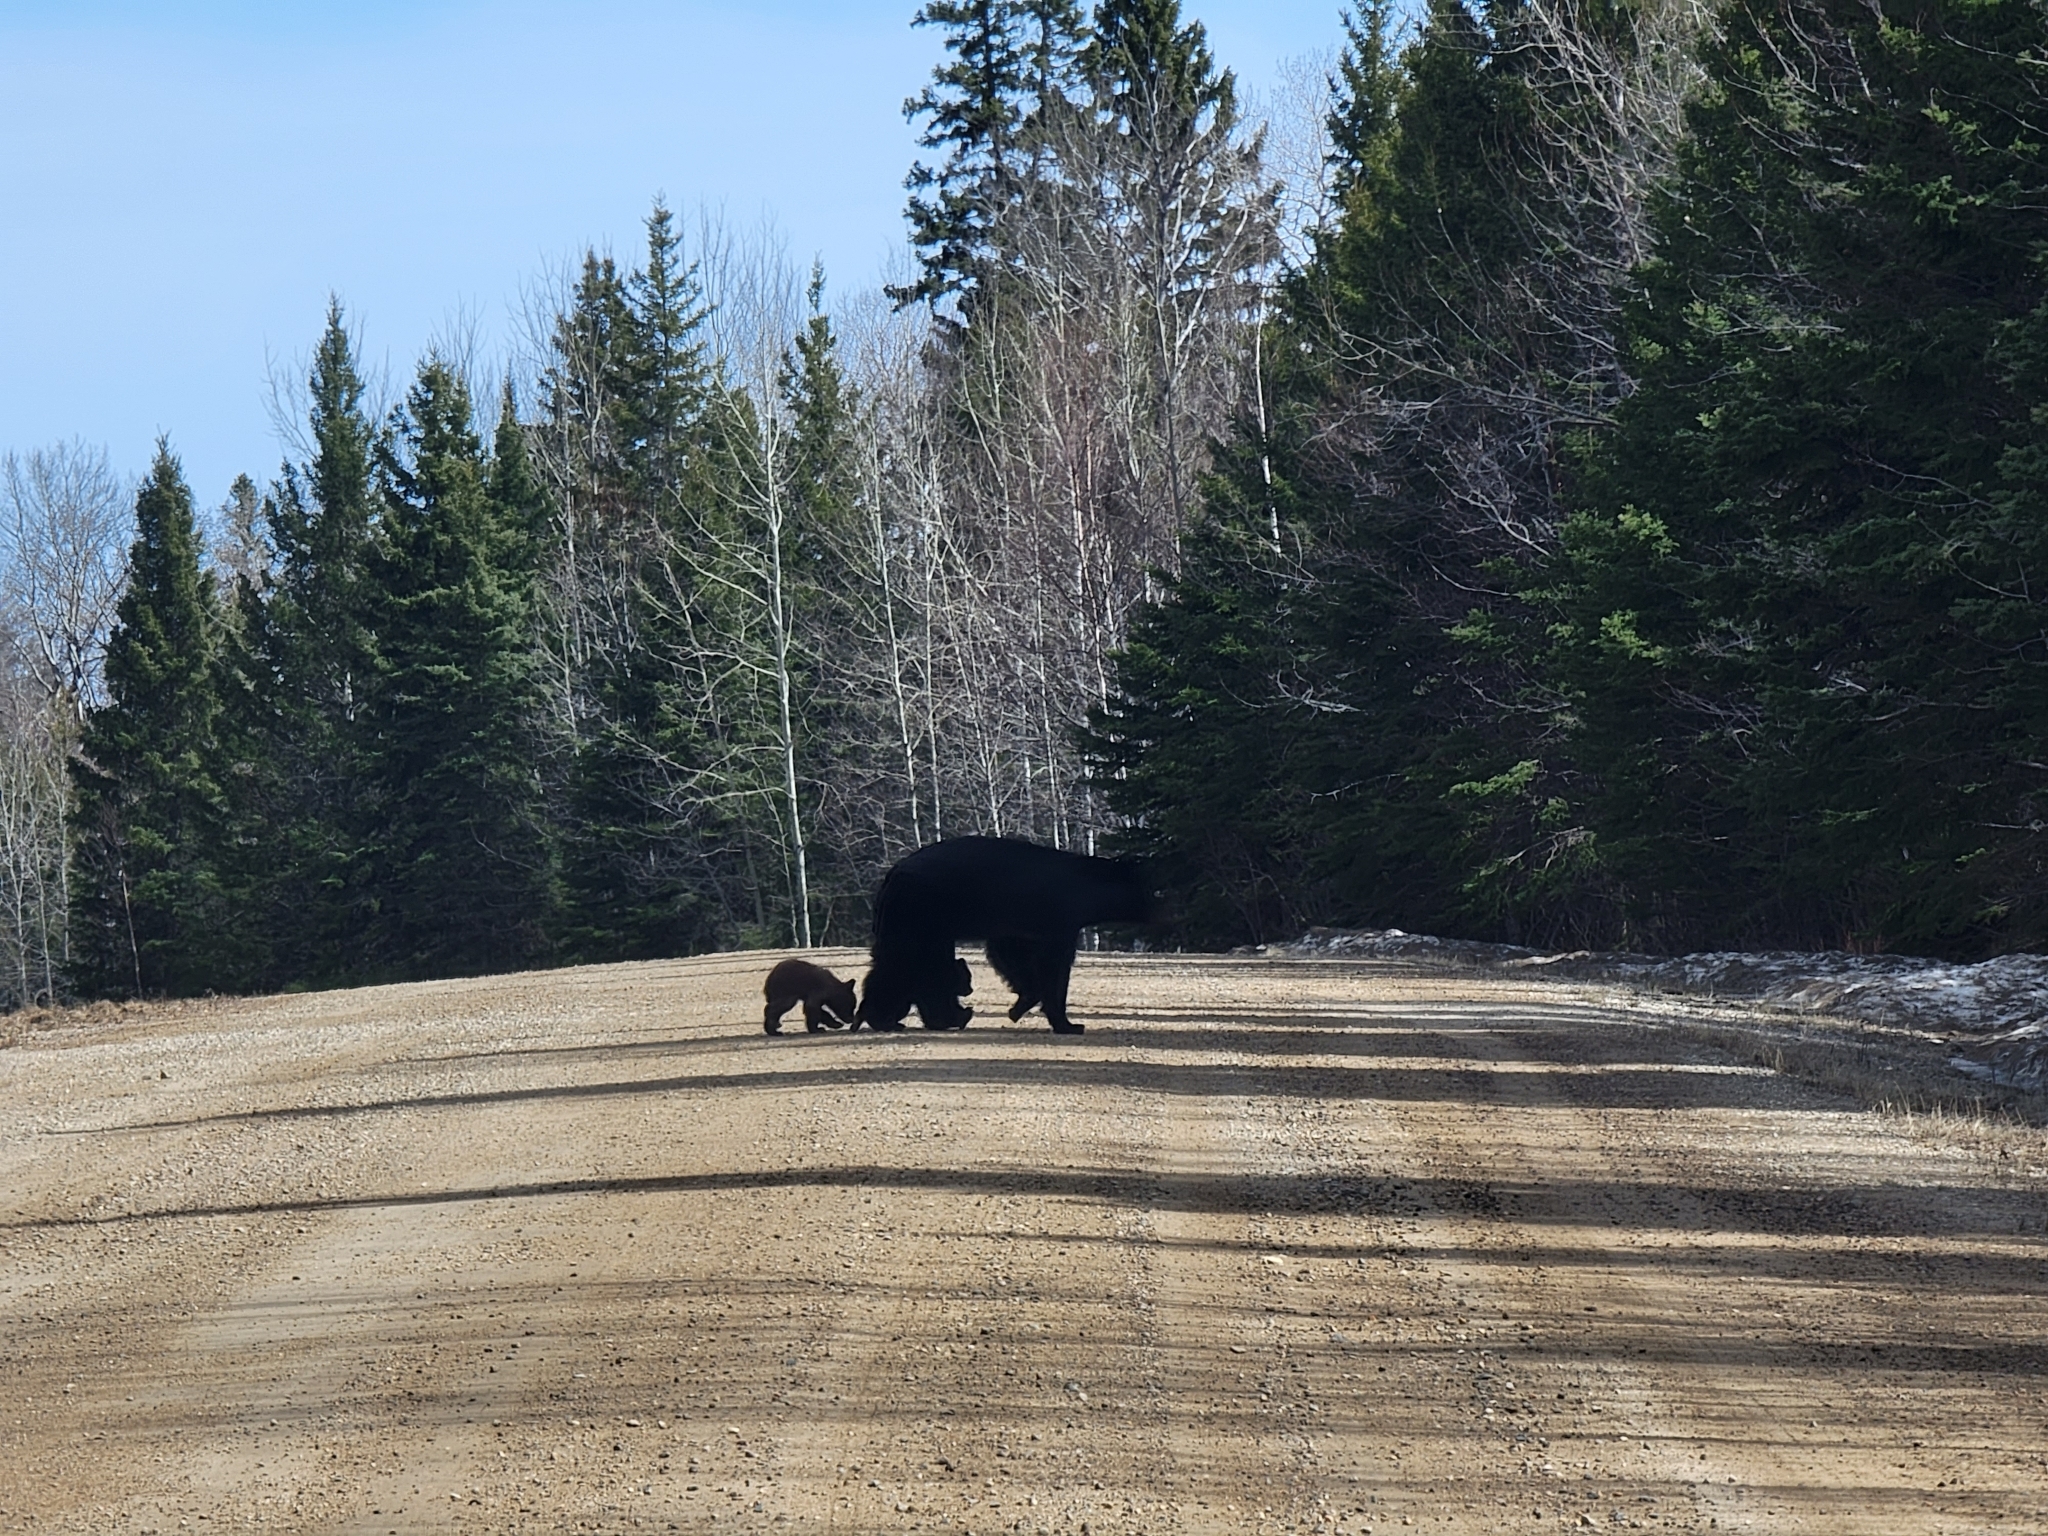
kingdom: Animalia
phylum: Chordata
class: Mammalia
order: Carnivora
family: Ursidae
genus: Ursus
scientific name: Ursus americanus
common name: American black bear
